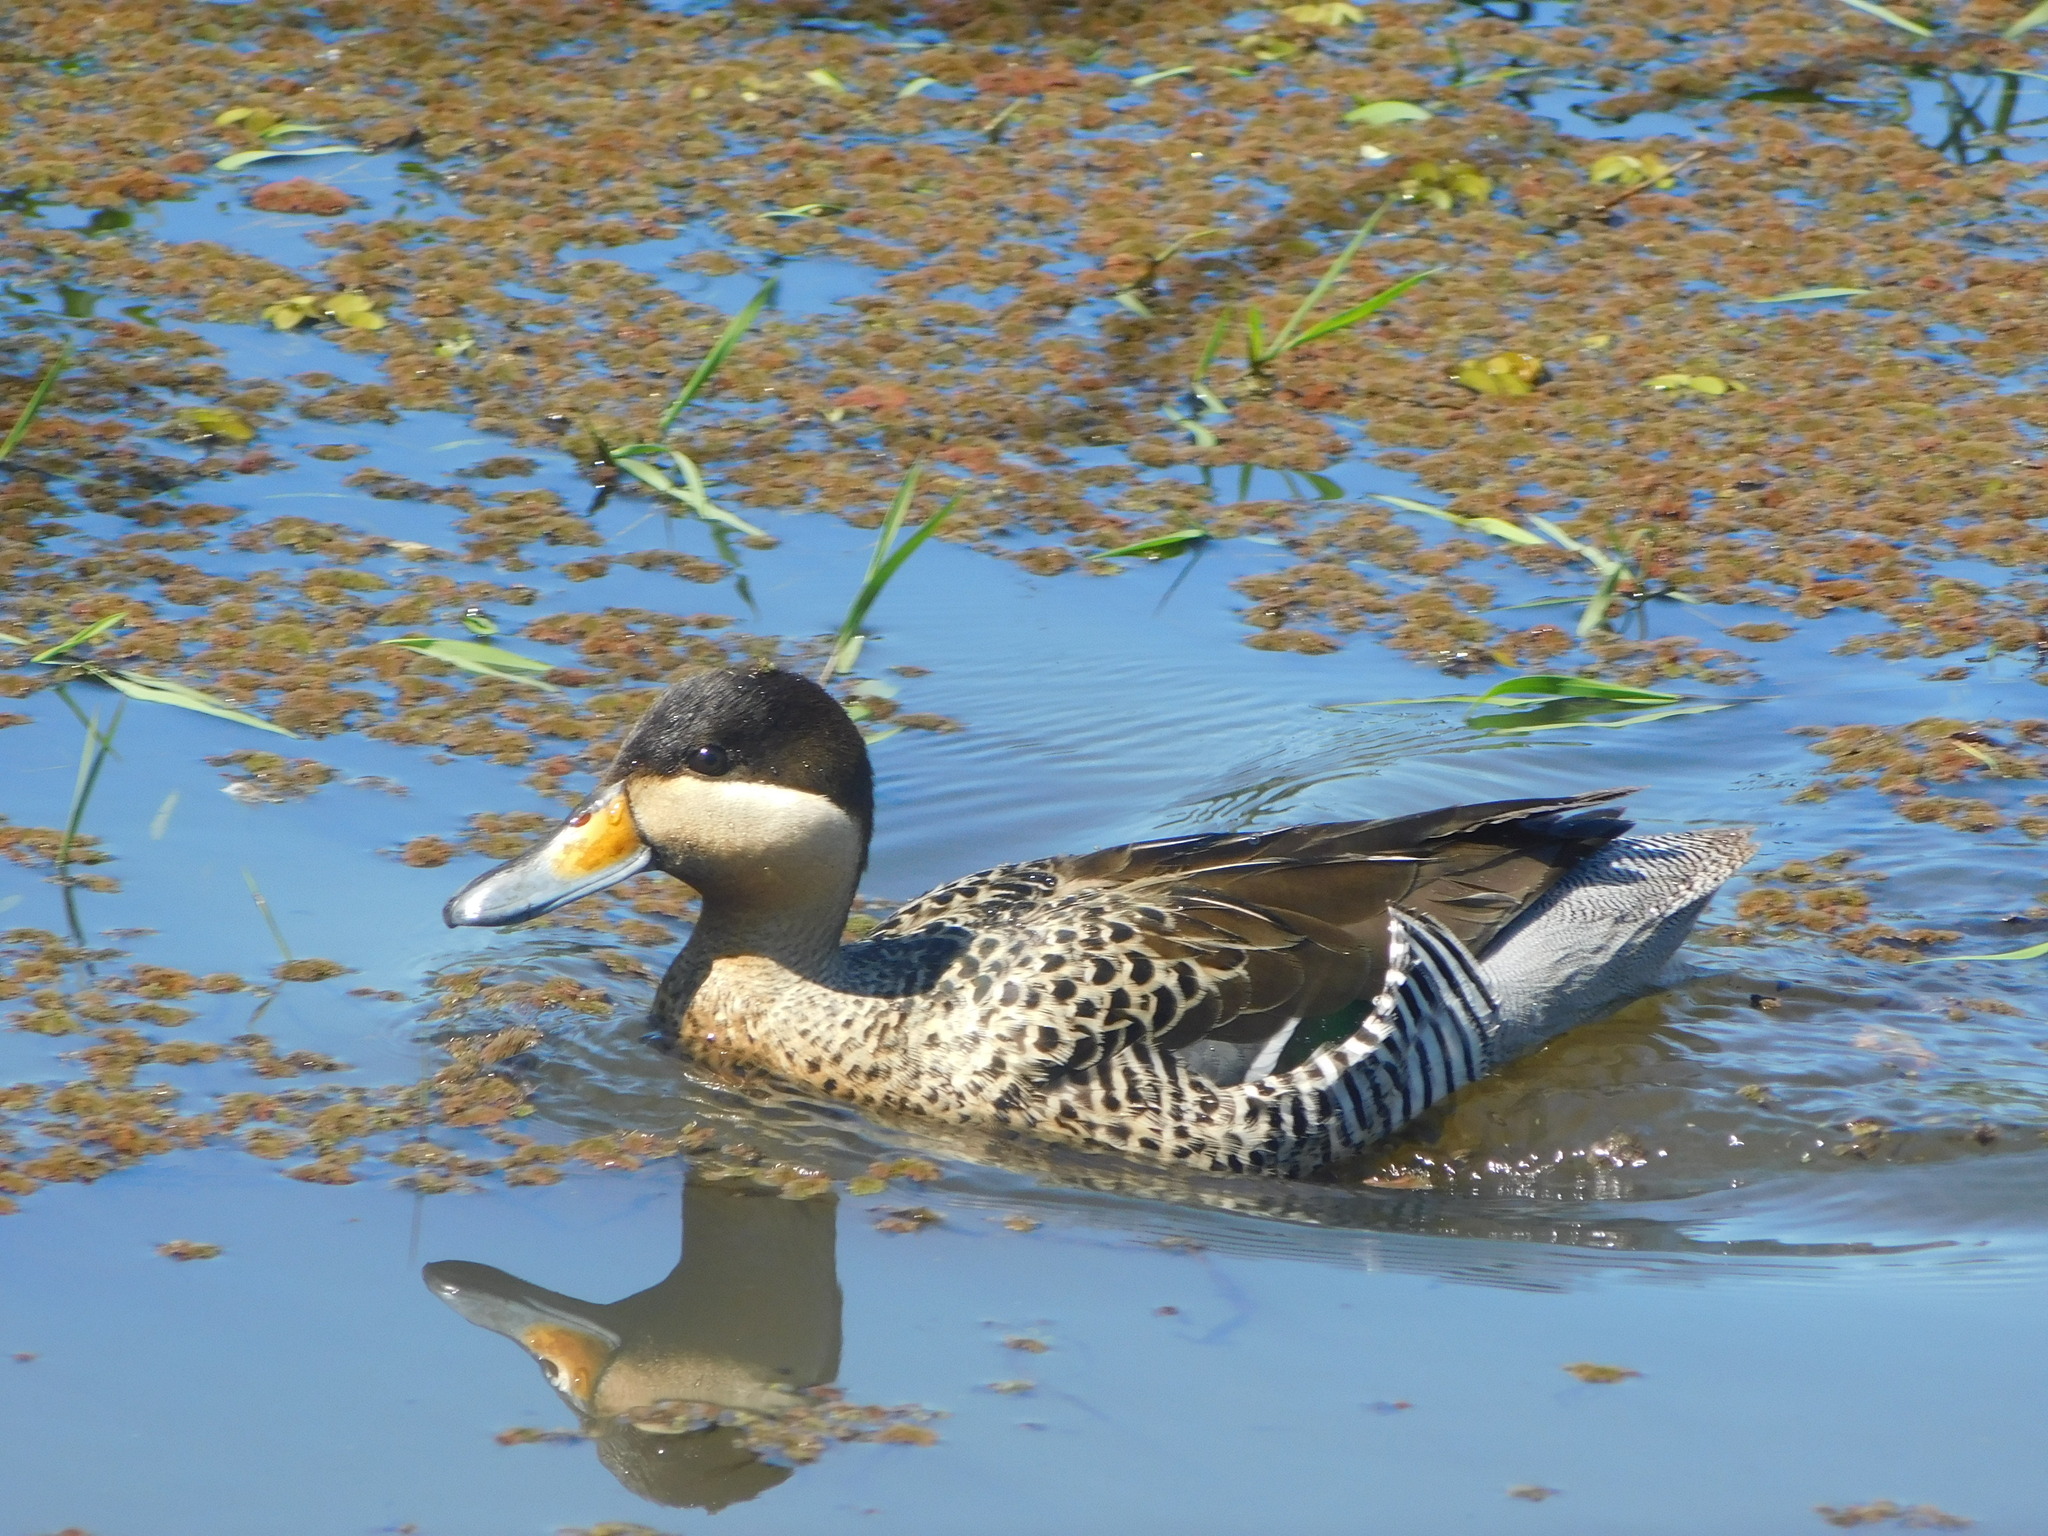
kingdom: Animalia
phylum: Chordata
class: Aves
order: Anseriformes
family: Anatidae
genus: Spatula
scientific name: Spatula versicolor
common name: Silver teal
